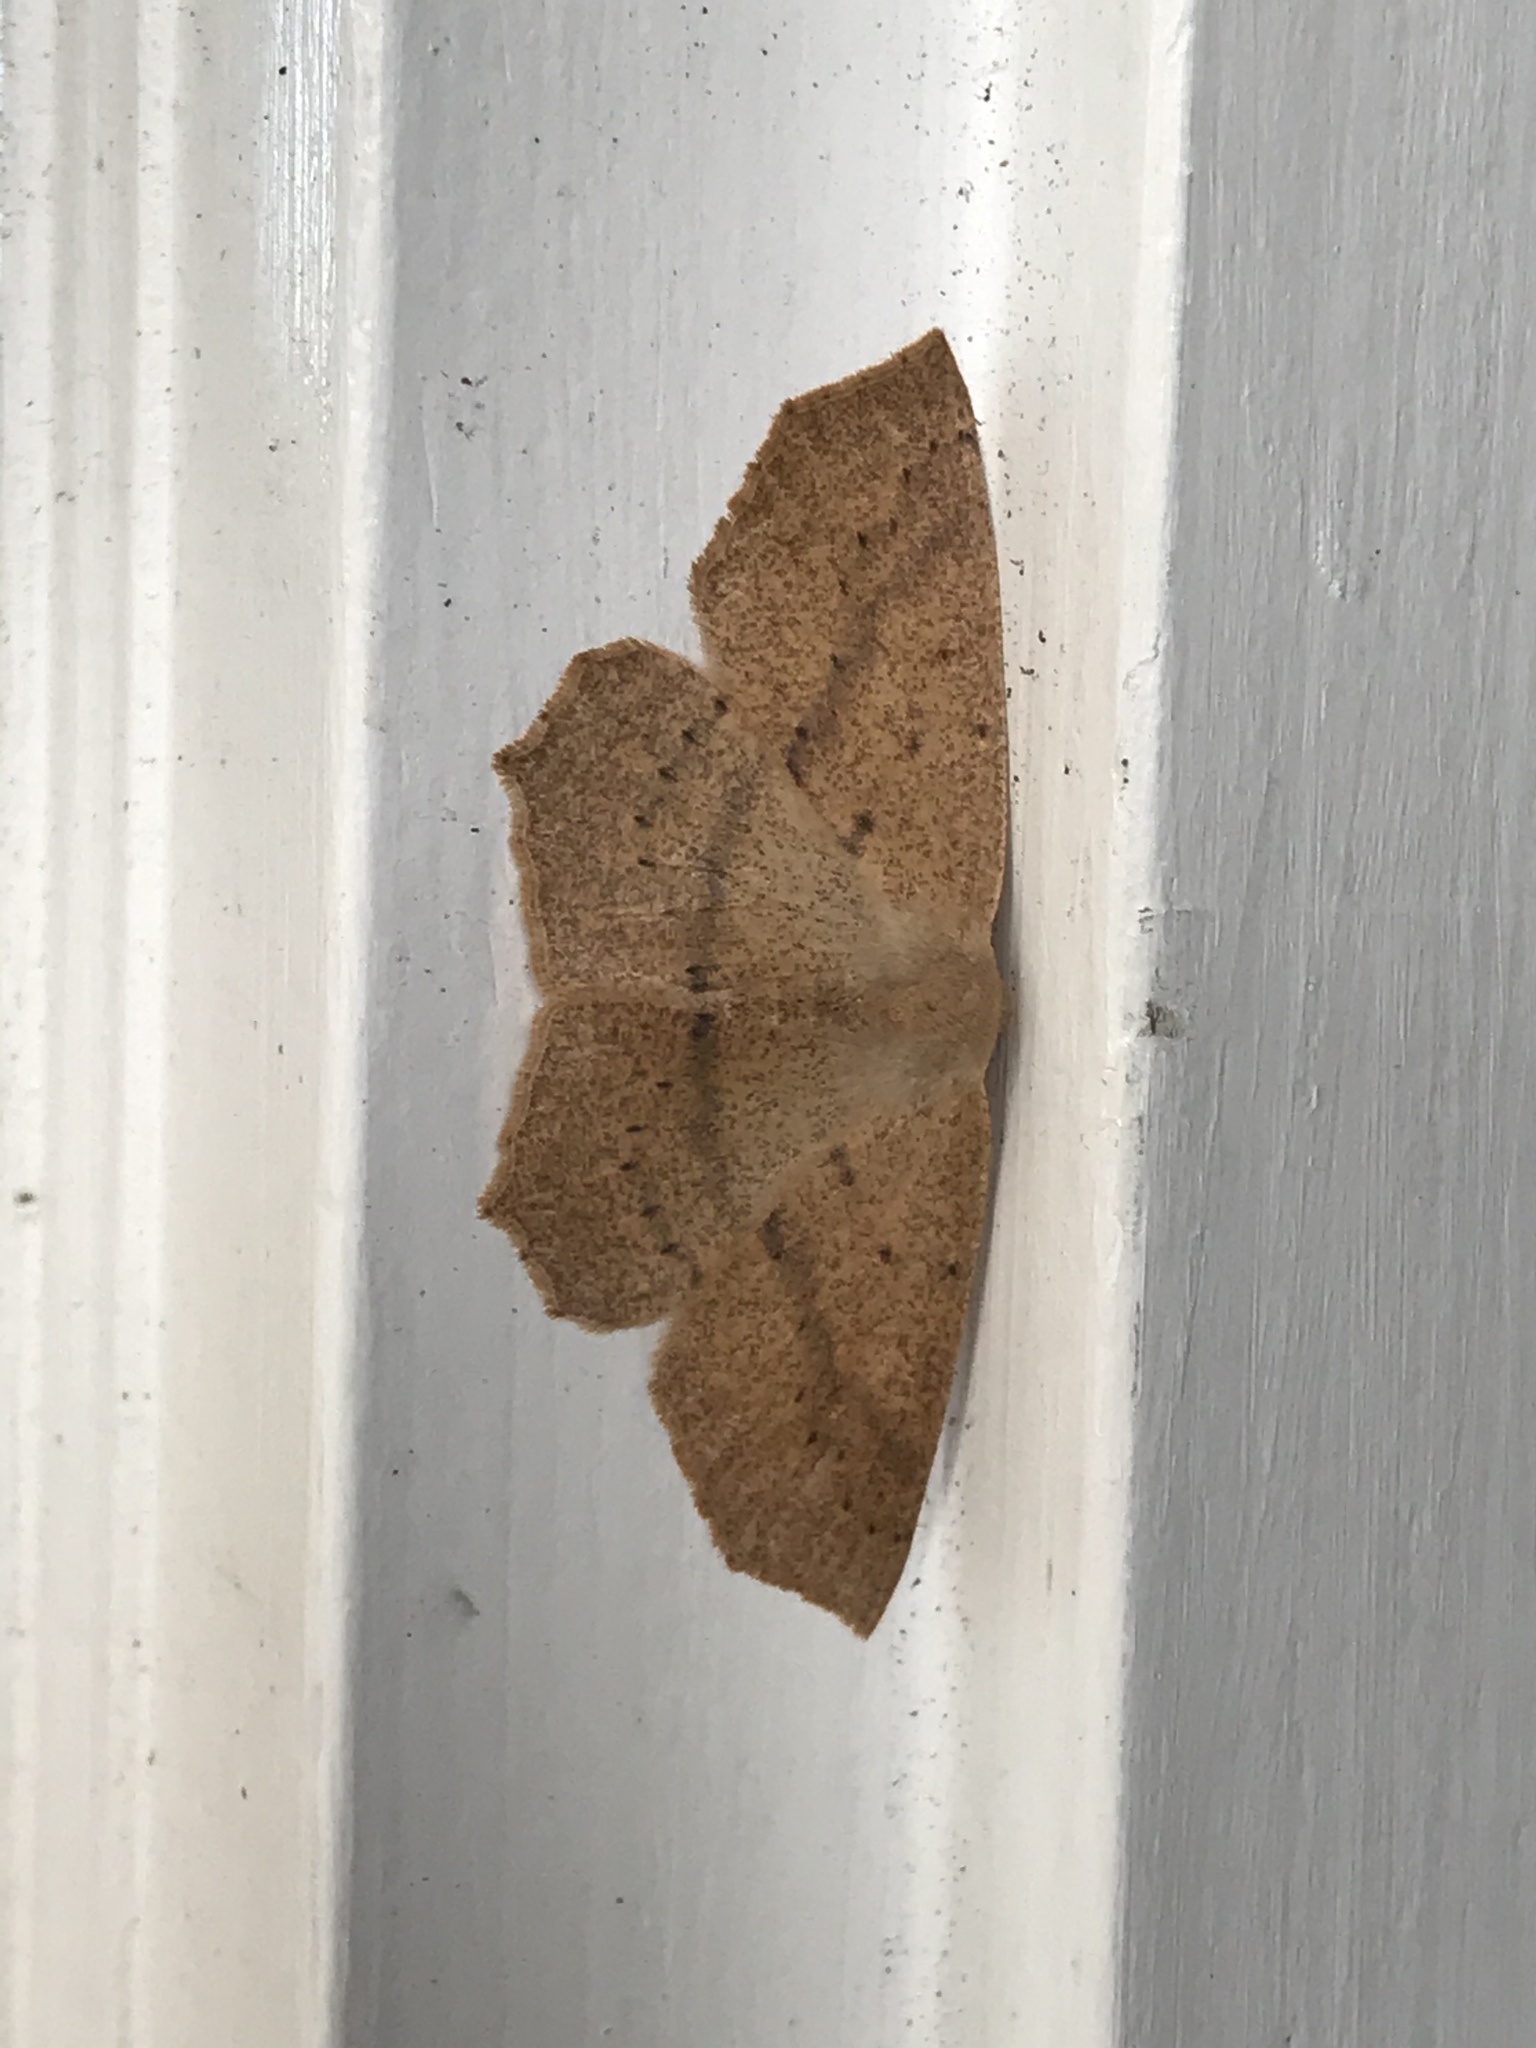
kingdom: Animalia
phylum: Arthropoda
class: Insecta
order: Lepidoptera
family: Geometridae
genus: Sabulodes
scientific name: Sabulodes aegrotata
